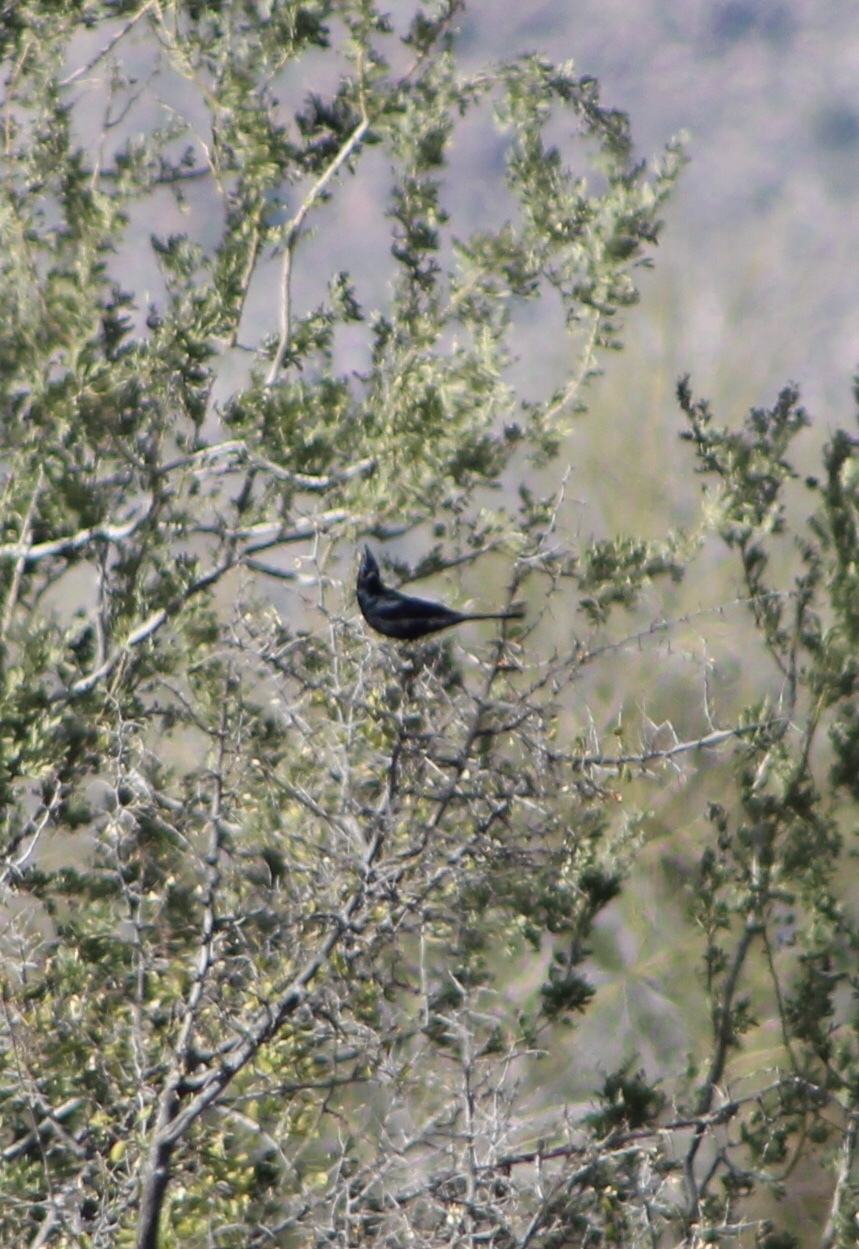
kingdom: Animalia
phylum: Chordata
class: Aves
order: Passeriformes
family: Ptilogonatidae
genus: Phainopepla
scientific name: Phainopepla nitens
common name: Phainopepla
